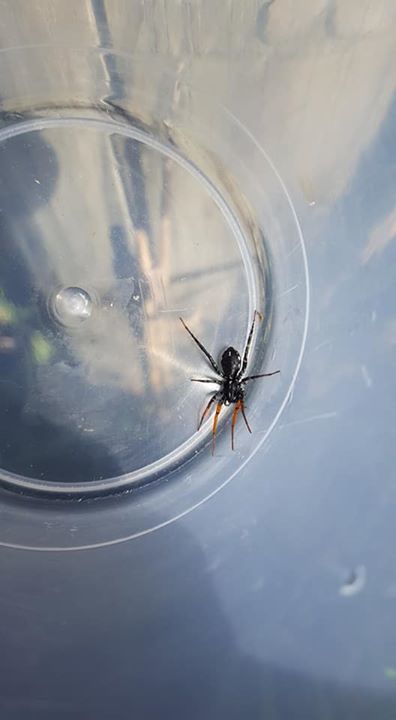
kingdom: Animalia
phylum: Arthropoda
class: Arachnida
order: Araneae
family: Corinnidae
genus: Nyssus
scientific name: Nyssus coloripes
